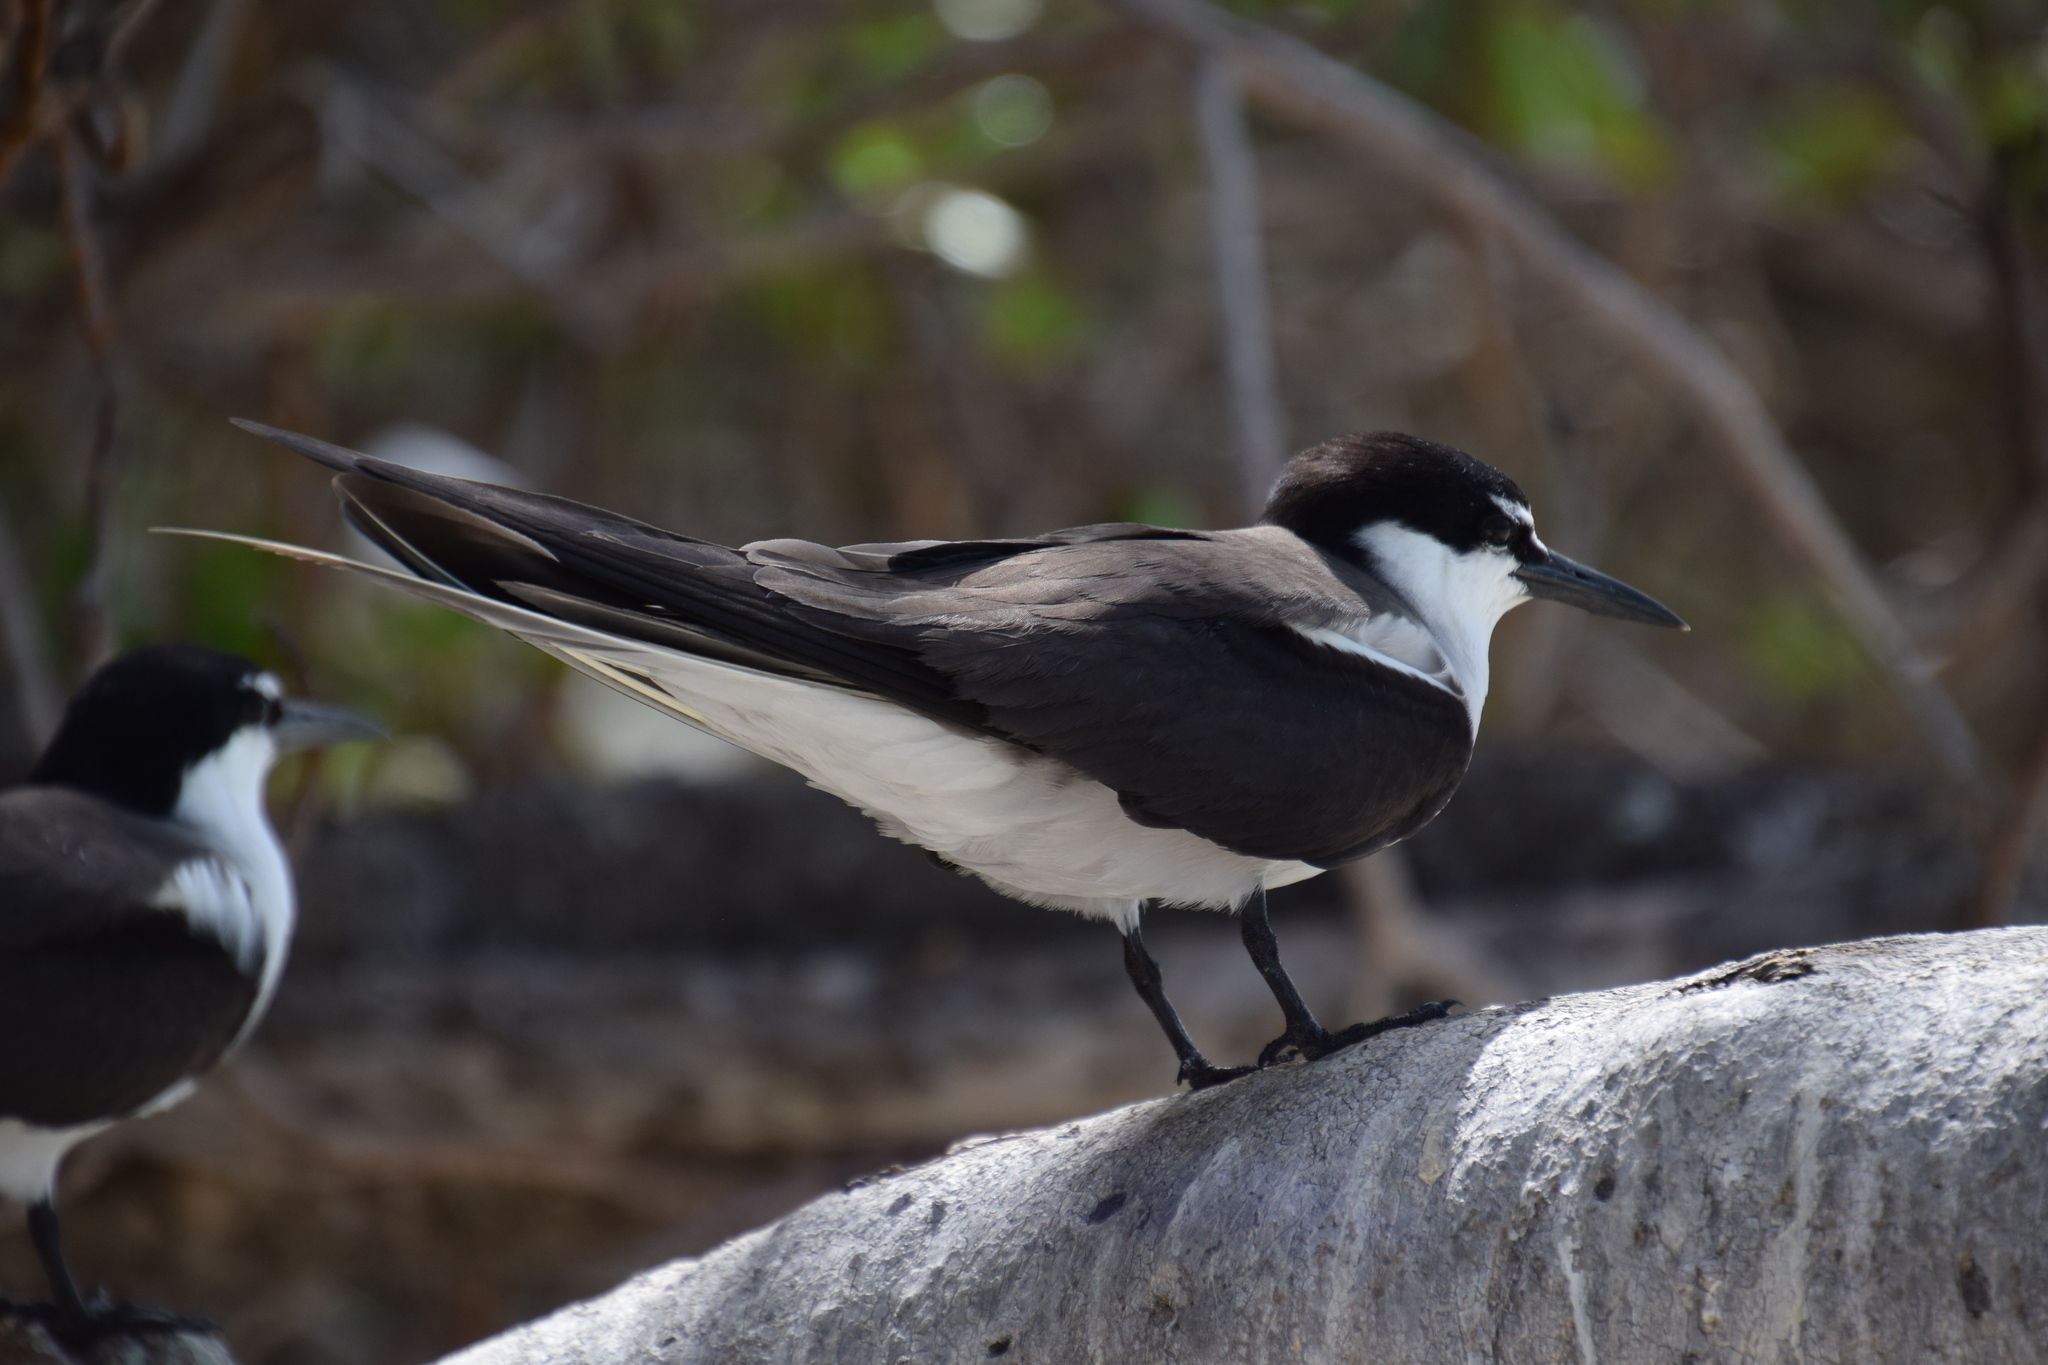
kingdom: Animalia
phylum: Chordata
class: Aves
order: Charadriiformes
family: Laridae
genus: Onychoprion
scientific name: Onychoprion anaethetus
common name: Bridled tern
